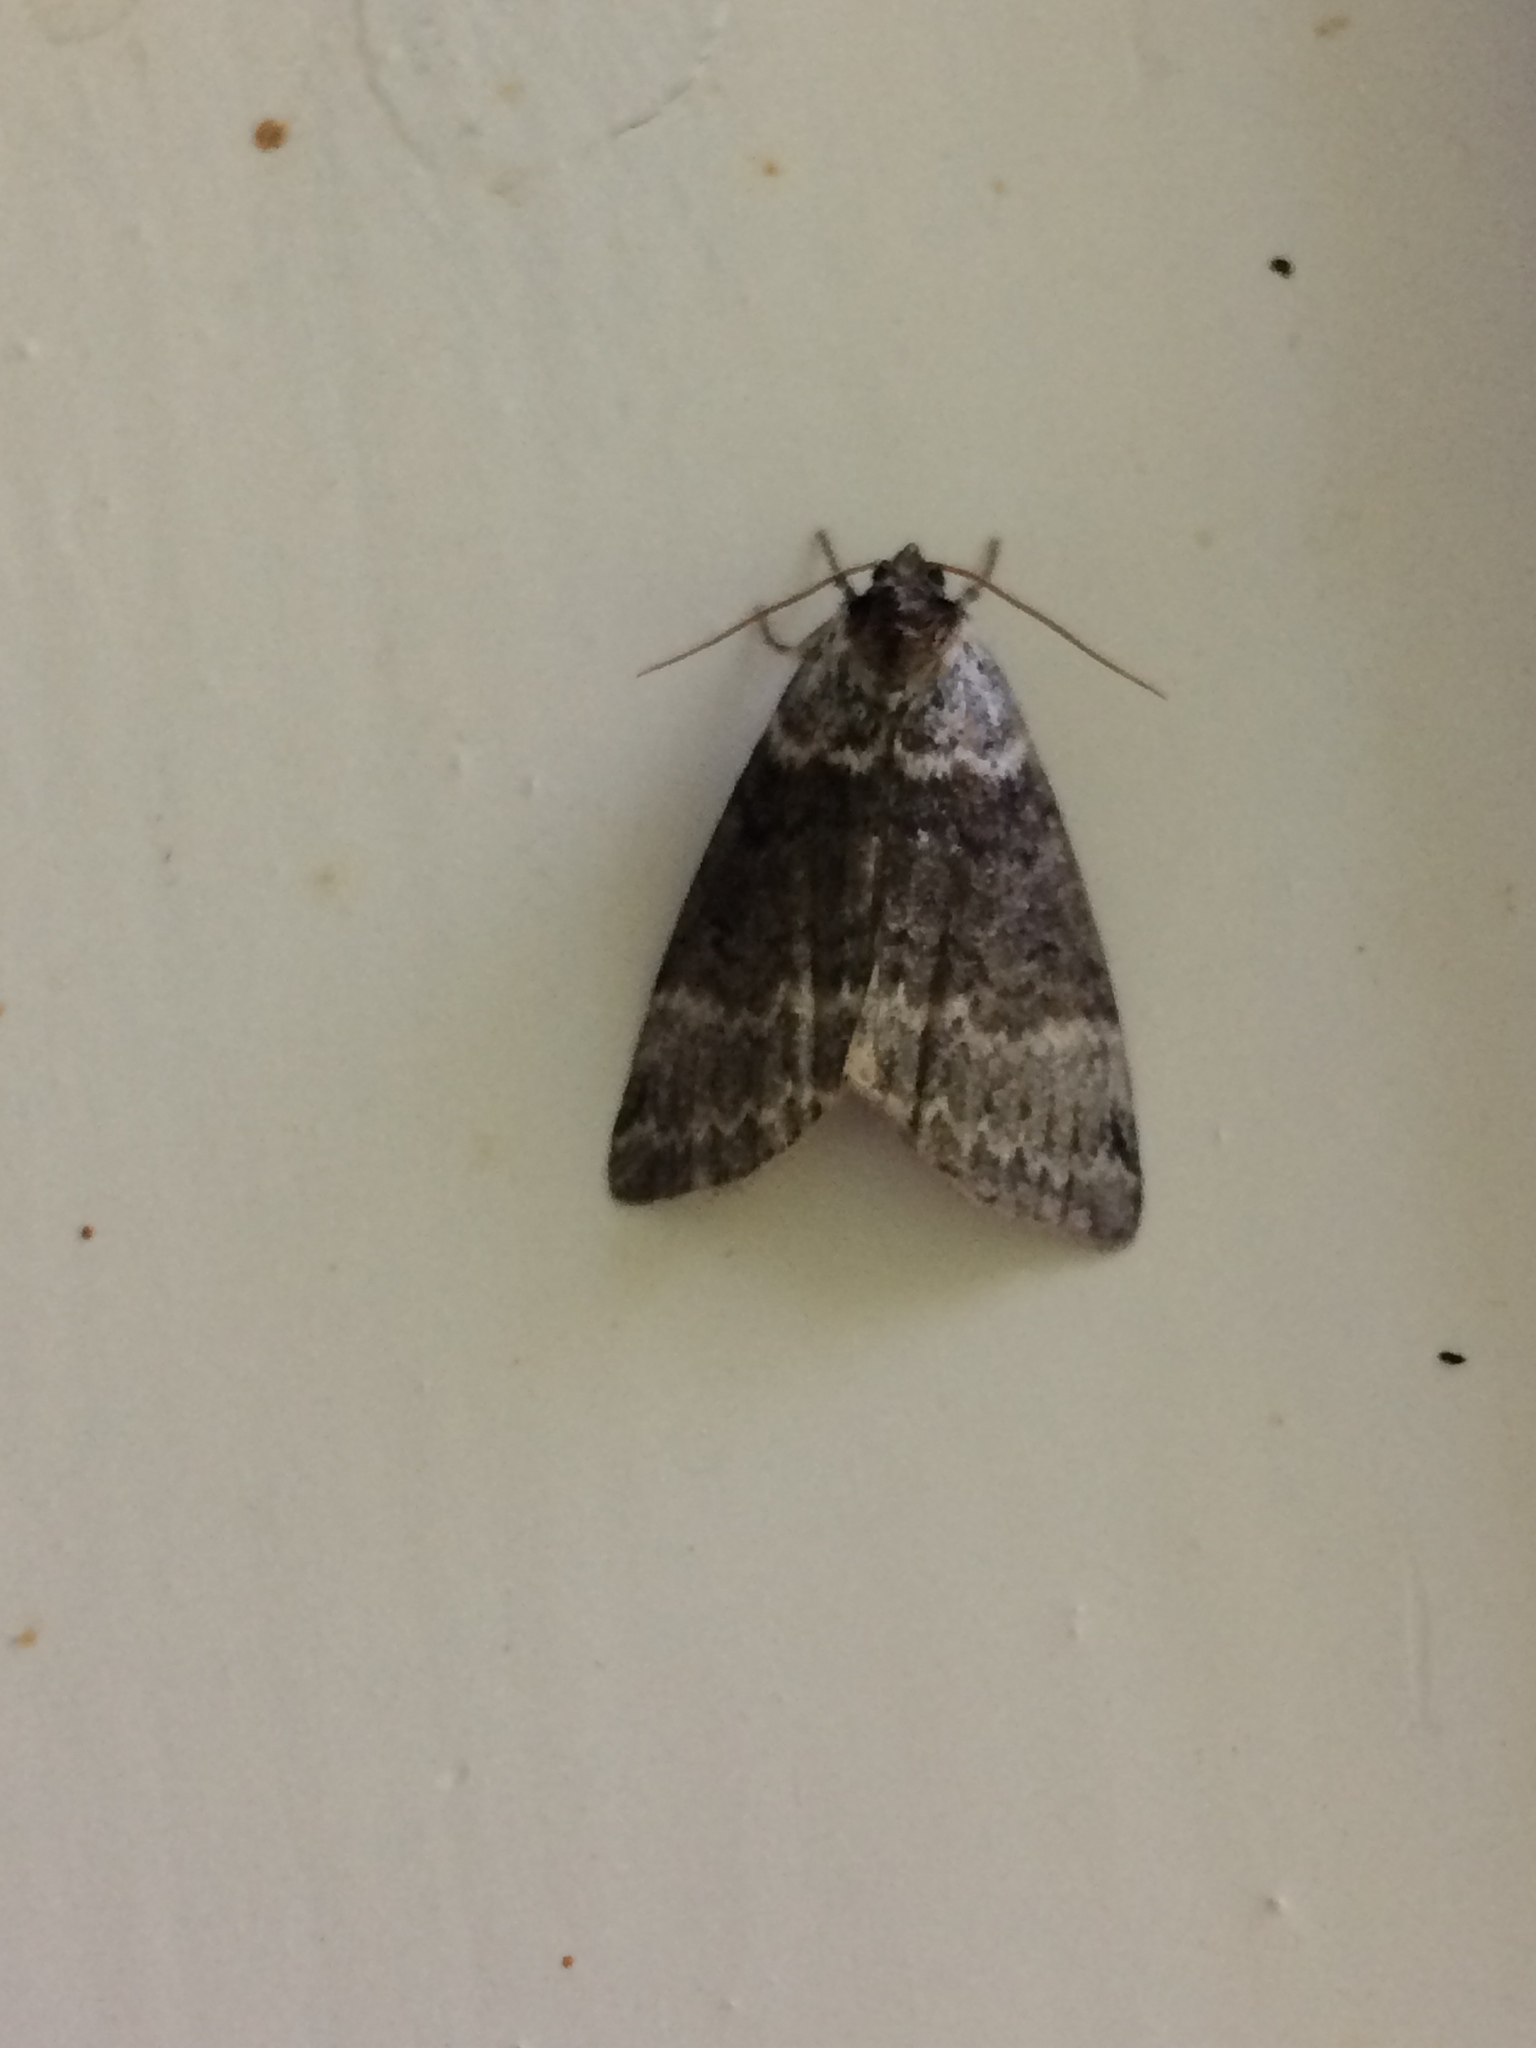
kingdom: Animalia
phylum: Arthropoda
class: Insecta
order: Lepidoptera
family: Drepanidae
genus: Tetheella
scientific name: Tetheella fluctuosa
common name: Satin lutestring
